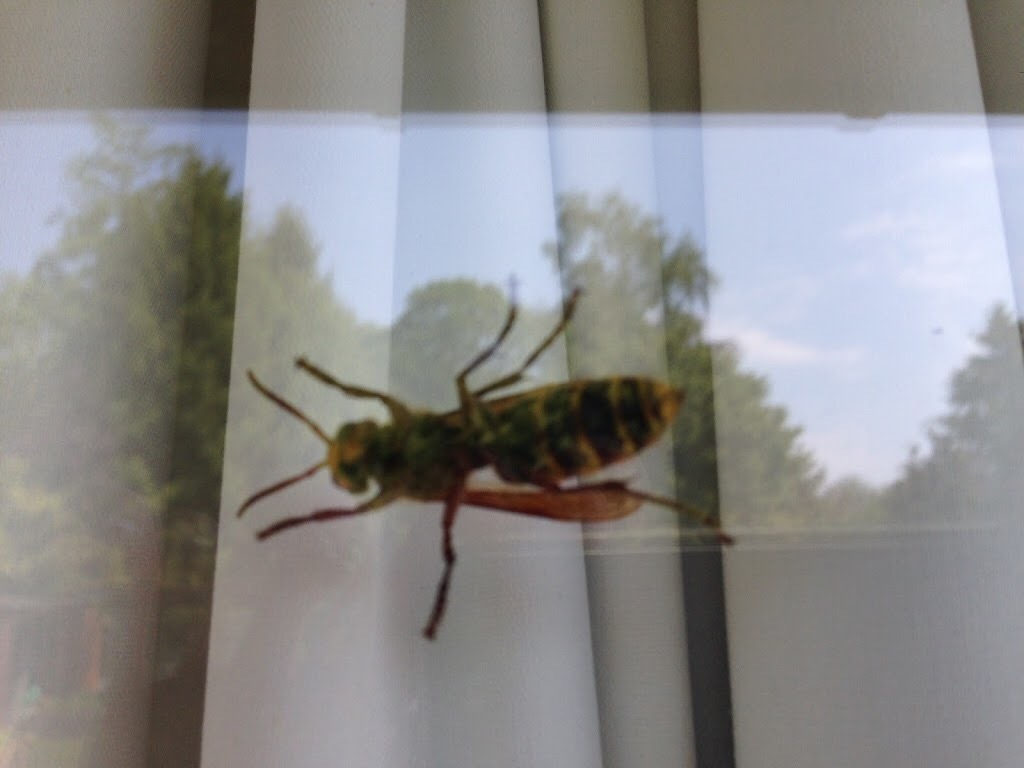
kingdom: Animalia
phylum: Arthropoda
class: Insecta
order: Hymenoptera
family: Vespidae
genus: Vespa
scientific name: Vespa crabro
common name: Hornet
